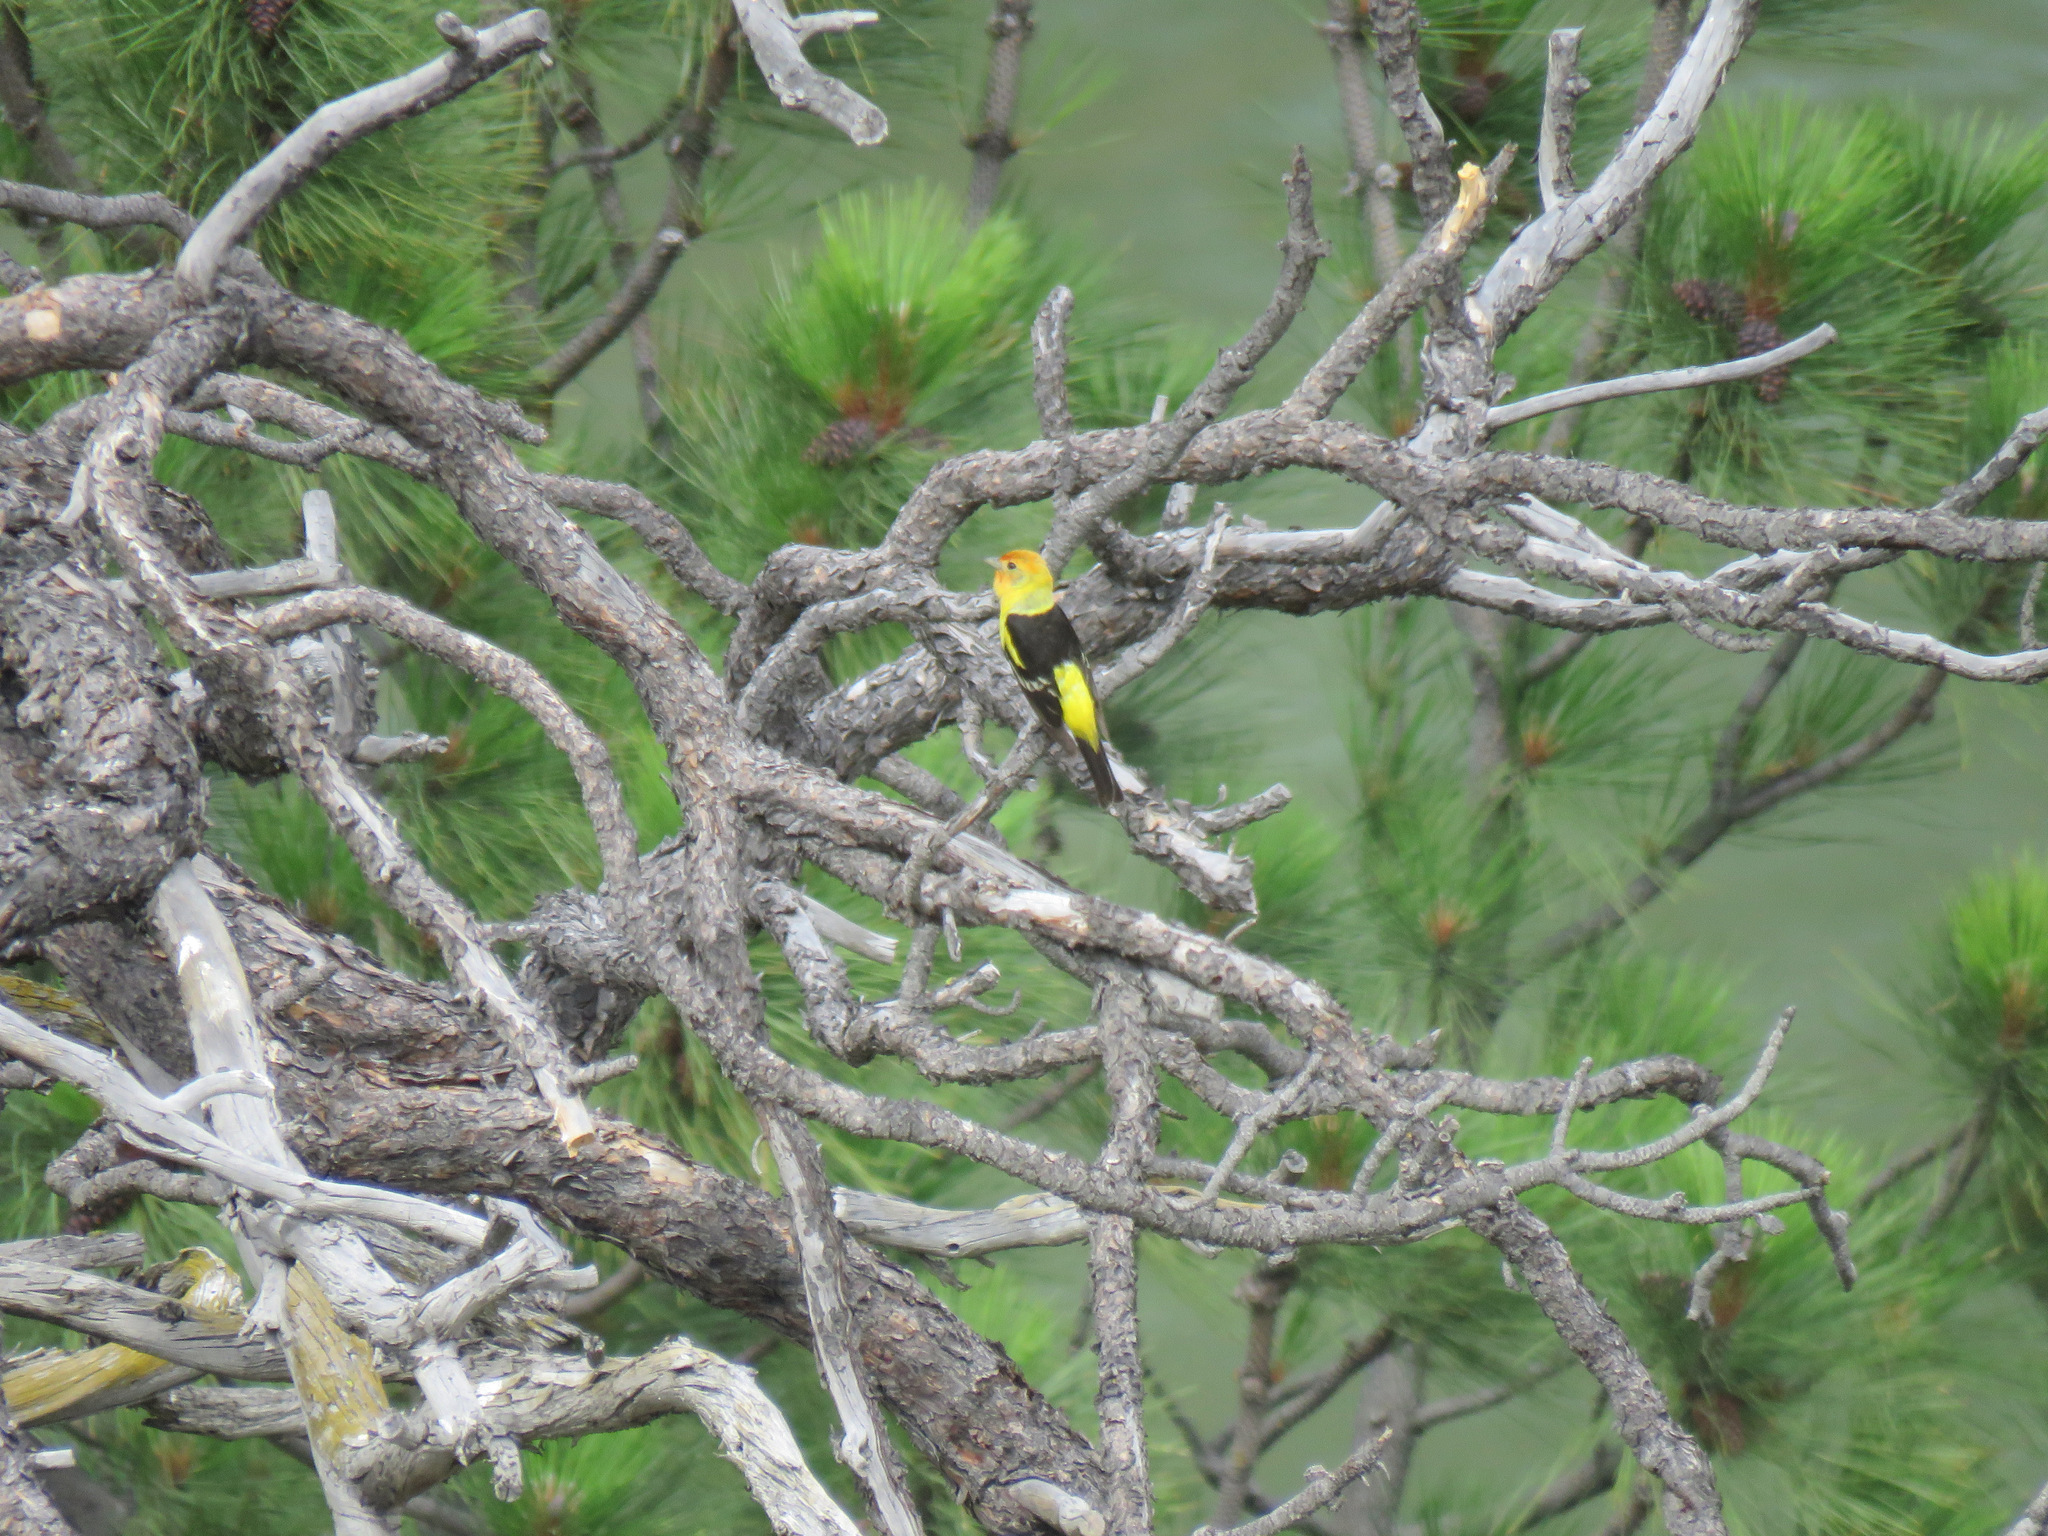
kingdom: Animalia
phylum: Chordata
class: Aves
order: Passeriformes
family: Cardinalidae
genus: Piranga
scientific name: Piranga ludoviciana
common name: Western tanager
